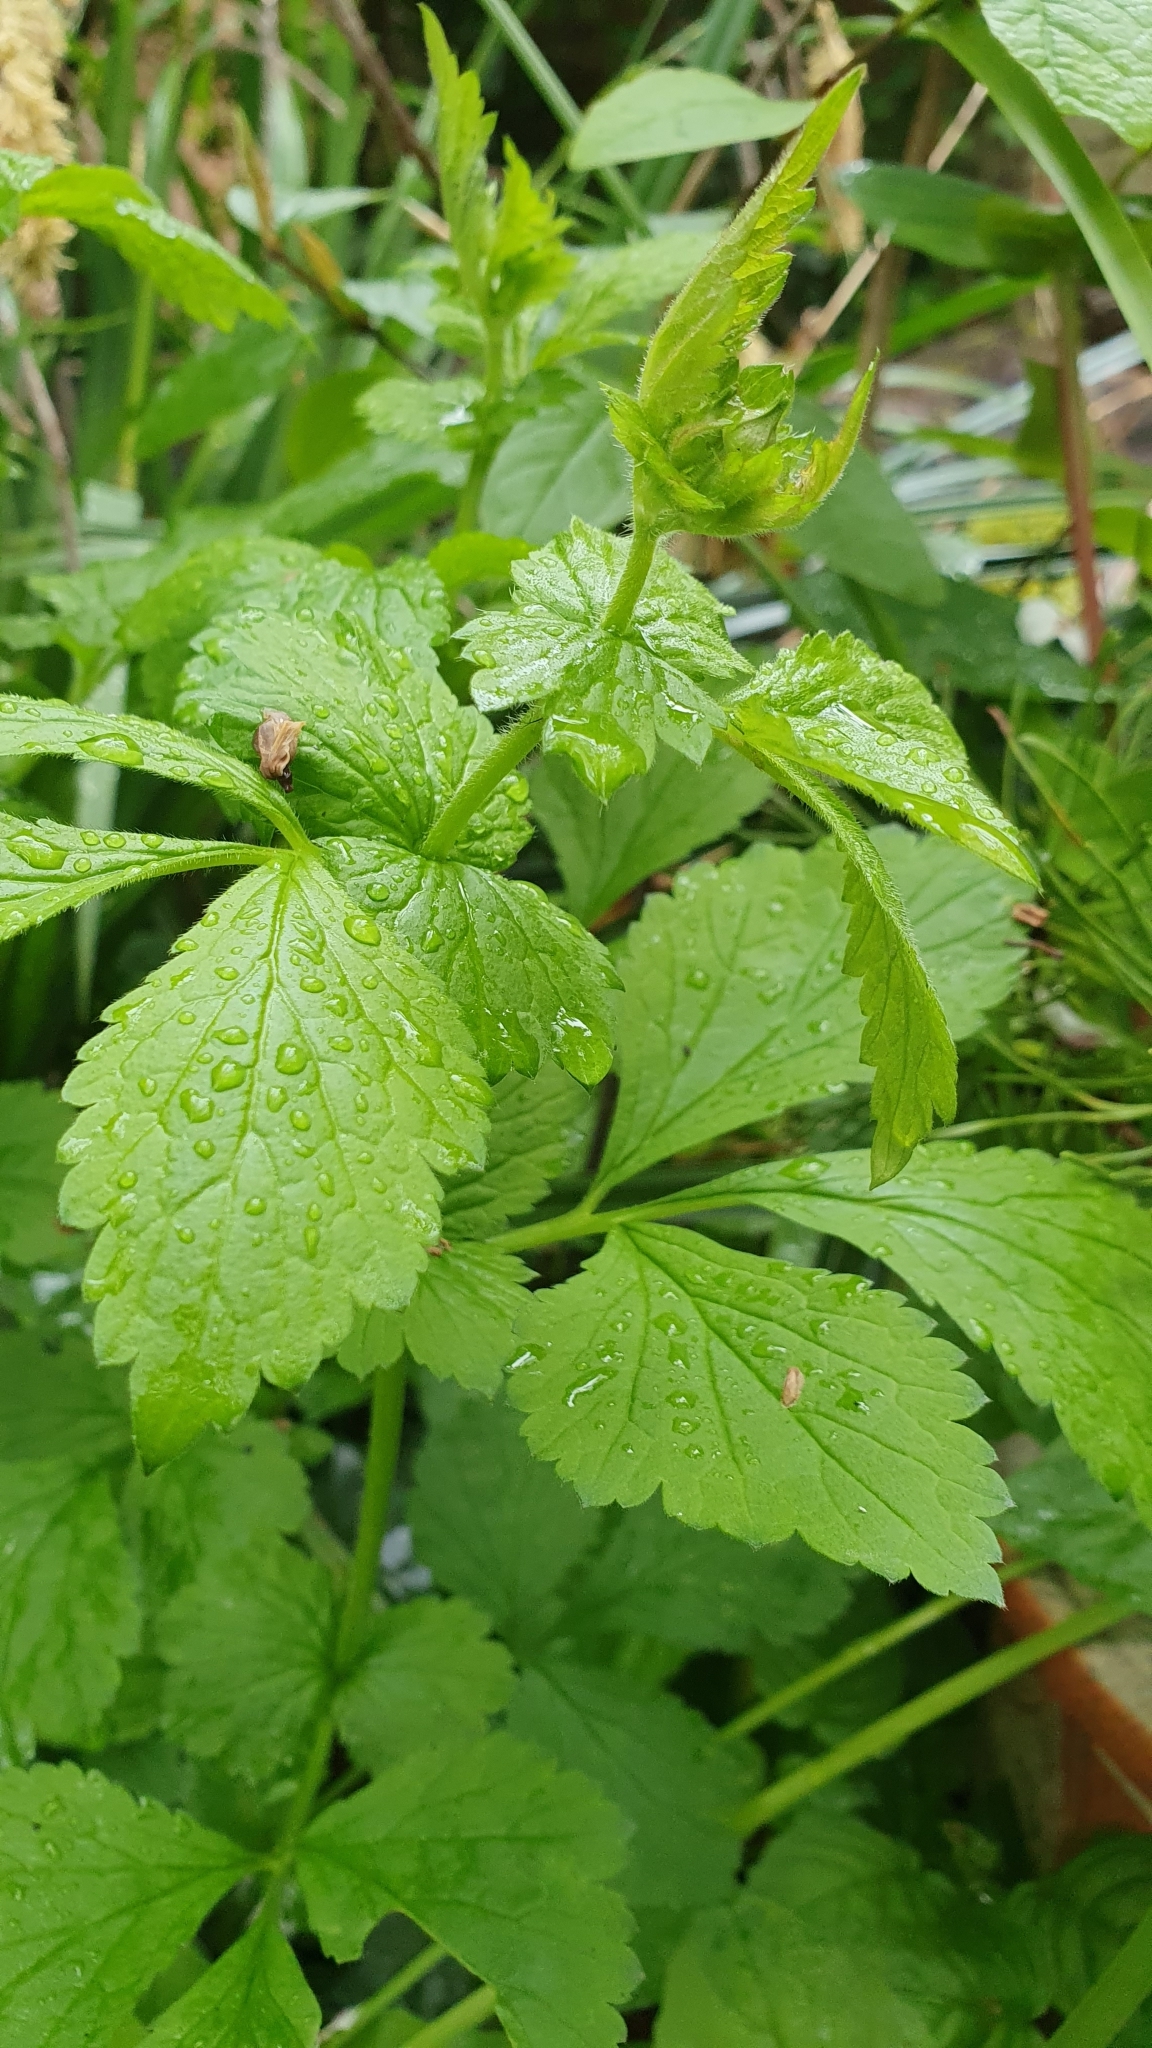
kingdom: Plantae
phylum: Tracheophyta
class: Magnoliopsida
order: Rosales
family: Rosaceae
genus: Geum
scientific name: Geum urbanum
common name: Wood avens
